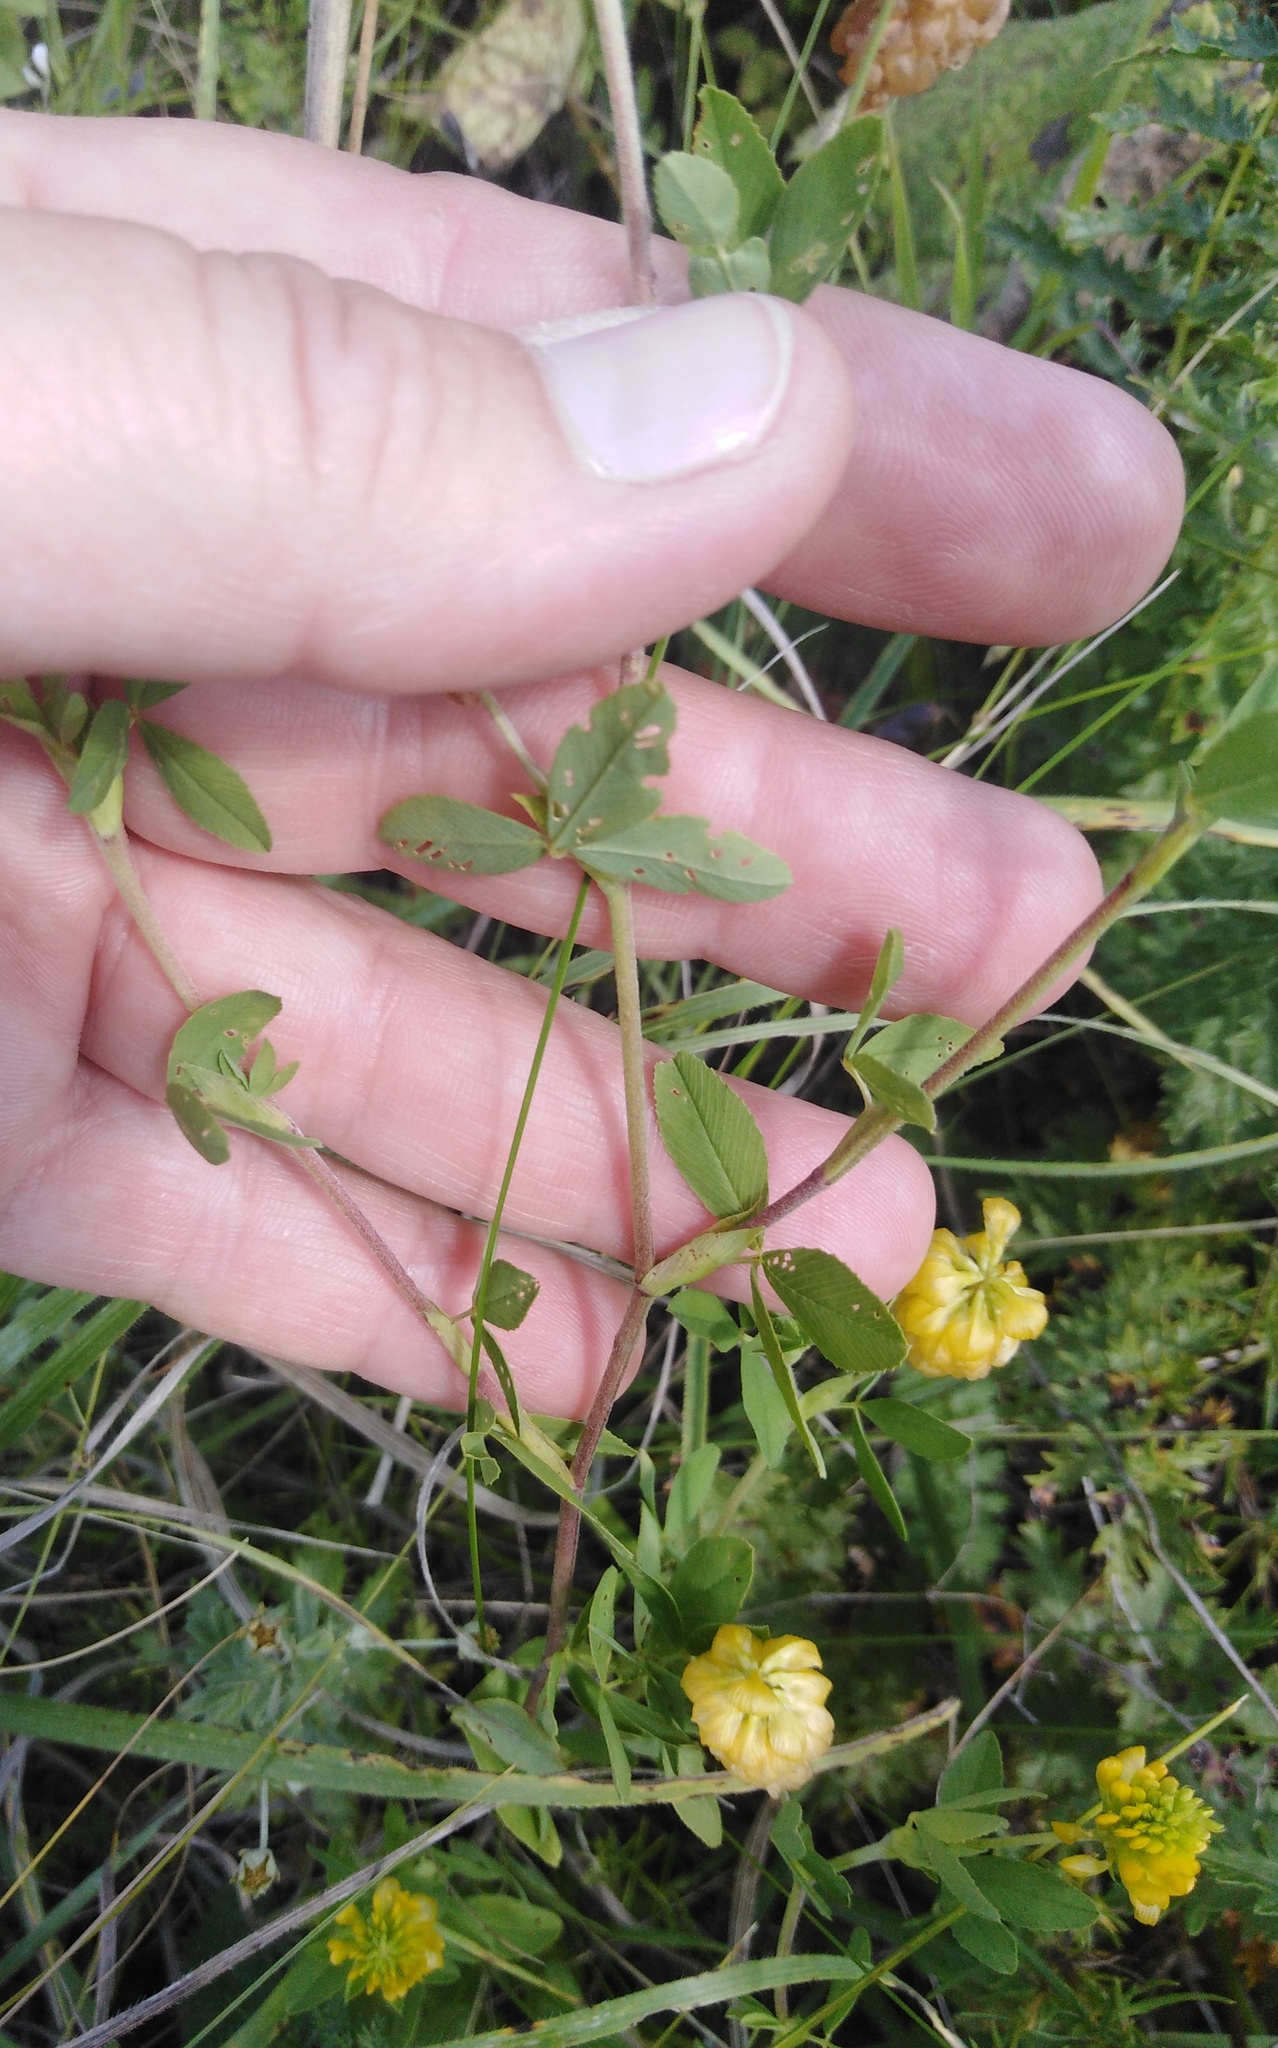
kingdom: Plantae
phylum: Tracheophyta
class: Magnoliopsida
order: Fabales
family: Fabaceae
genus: Trifolium
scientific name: Trifolium aureum
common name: Golden clover
